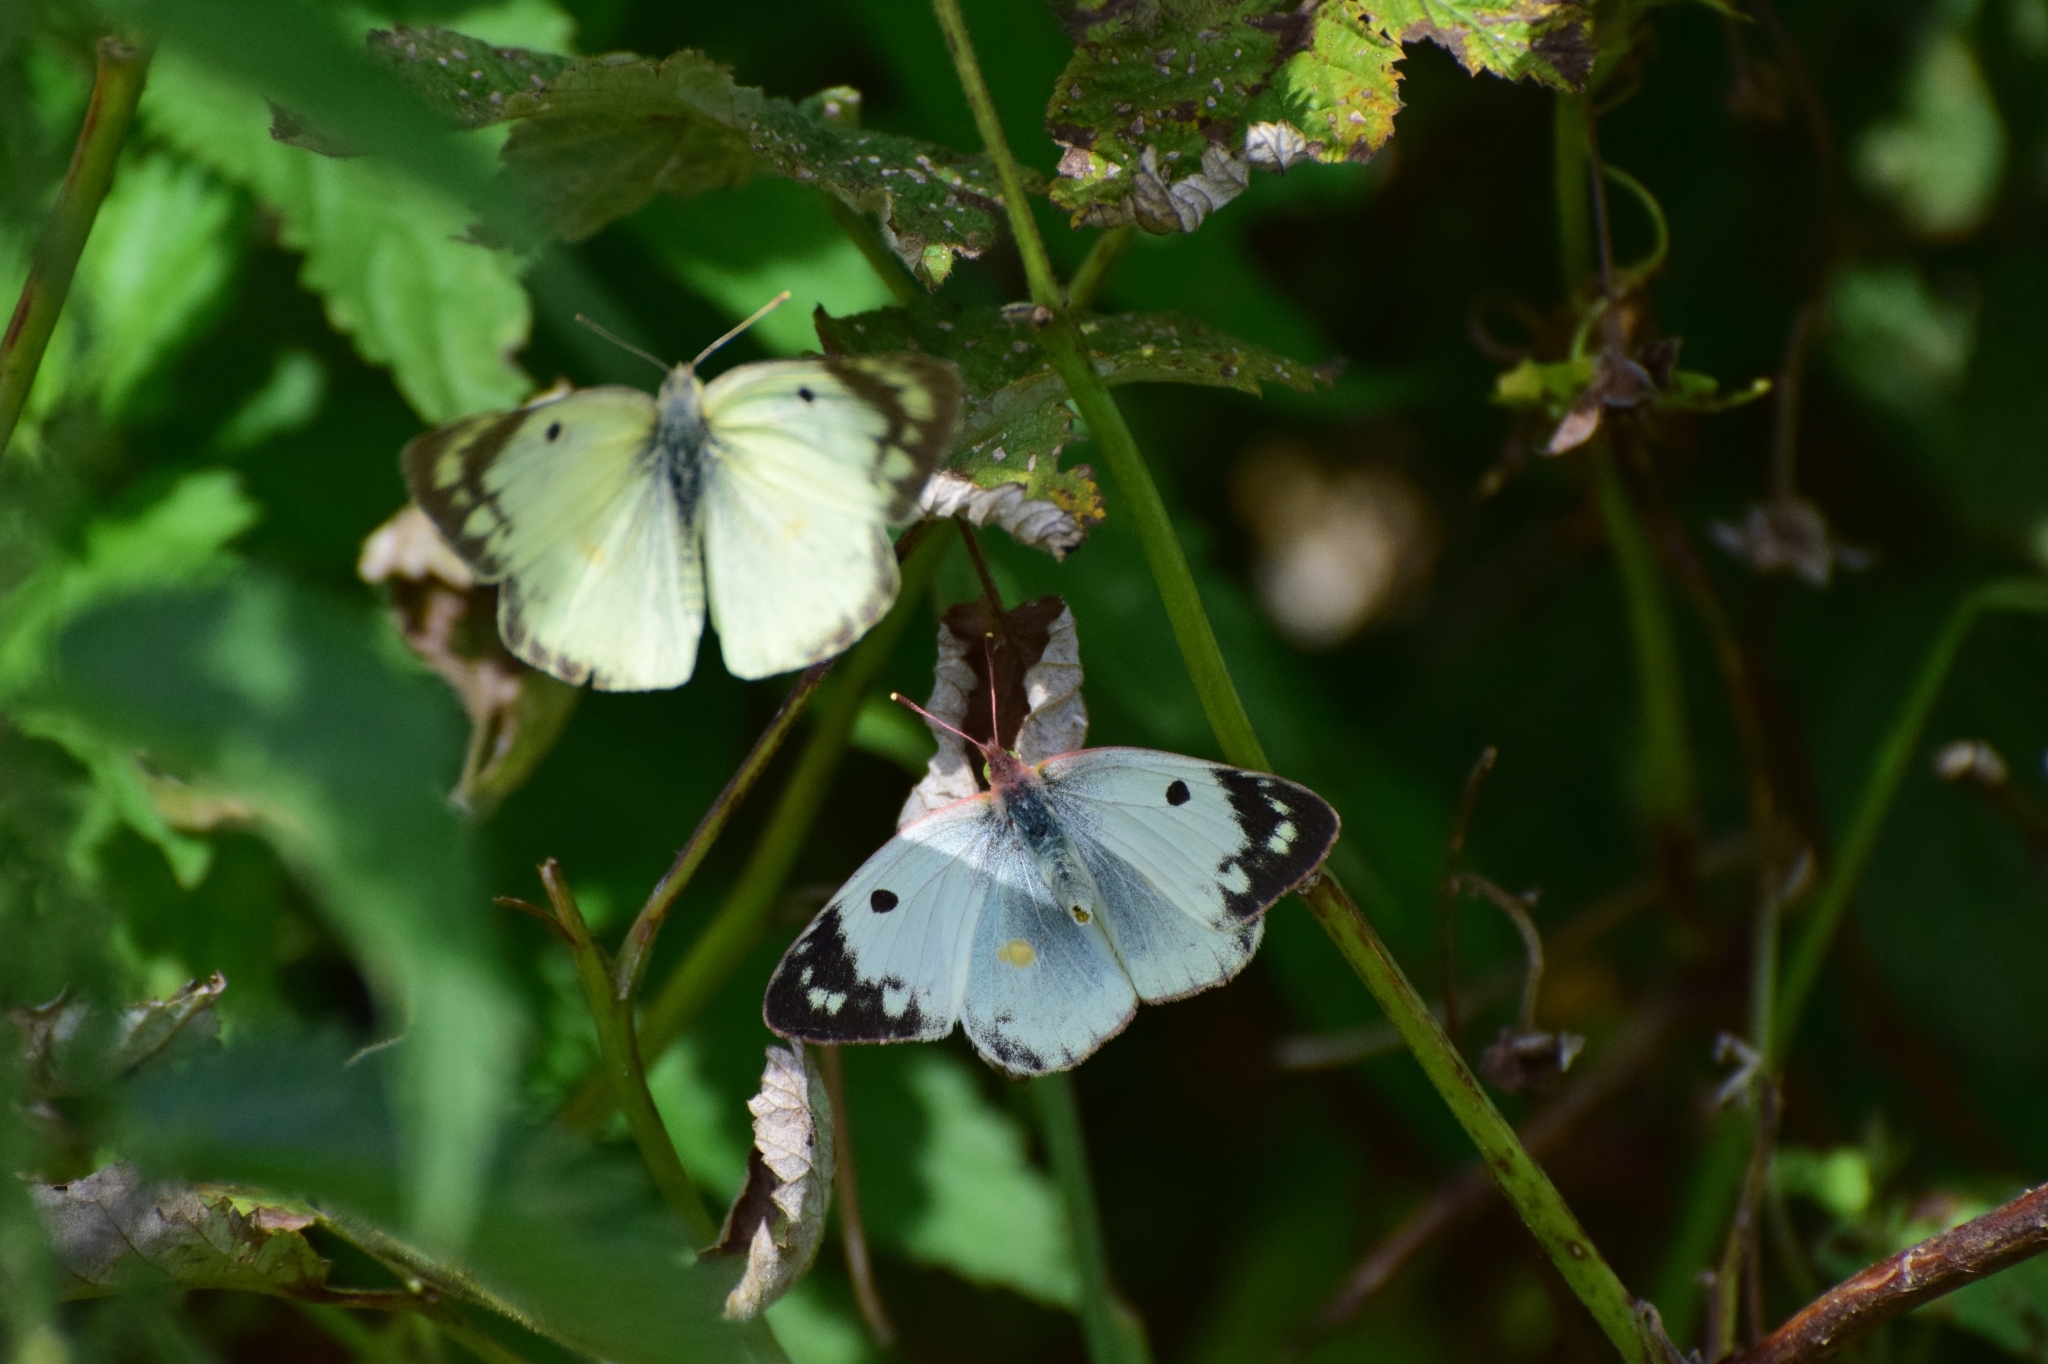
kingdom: Animalia
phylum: Arthropoda
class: Insecta
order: Lepidoptera
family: Pieridae
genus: Colias
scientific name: Colias hyale
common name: Pale clouded yellow
